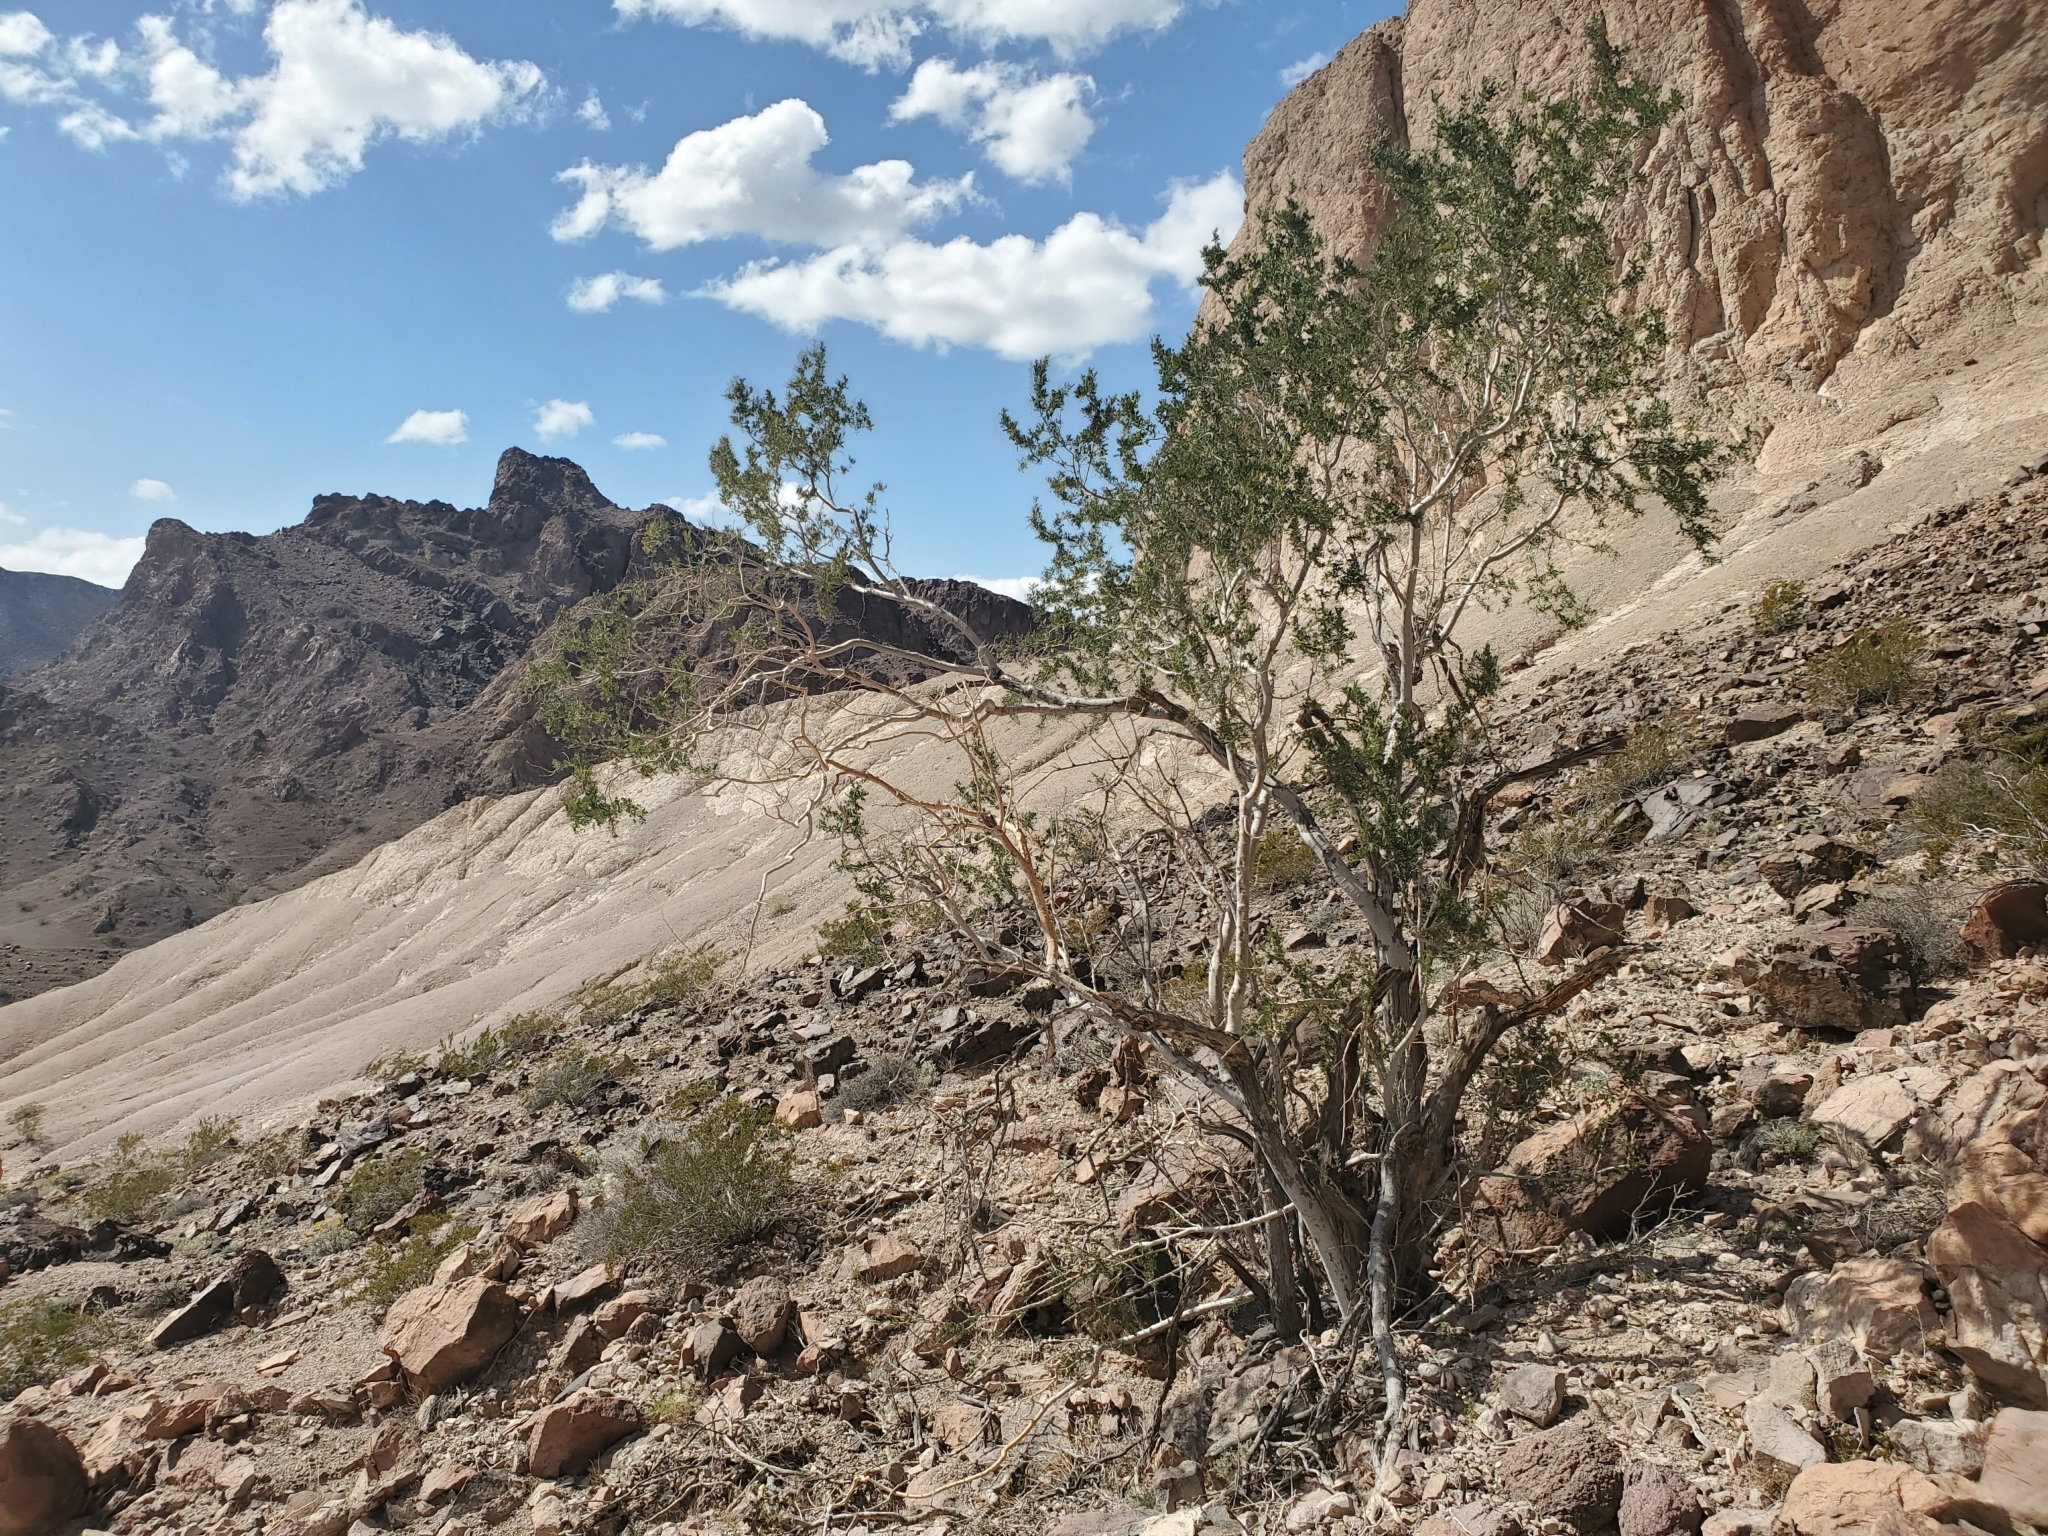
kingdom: Plantae
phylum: Tracheophyta
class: Magnoliopsida
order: Fabales
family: Fabaceae
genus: Olneya
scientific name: Olneya tesota
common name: Desert ironwood
